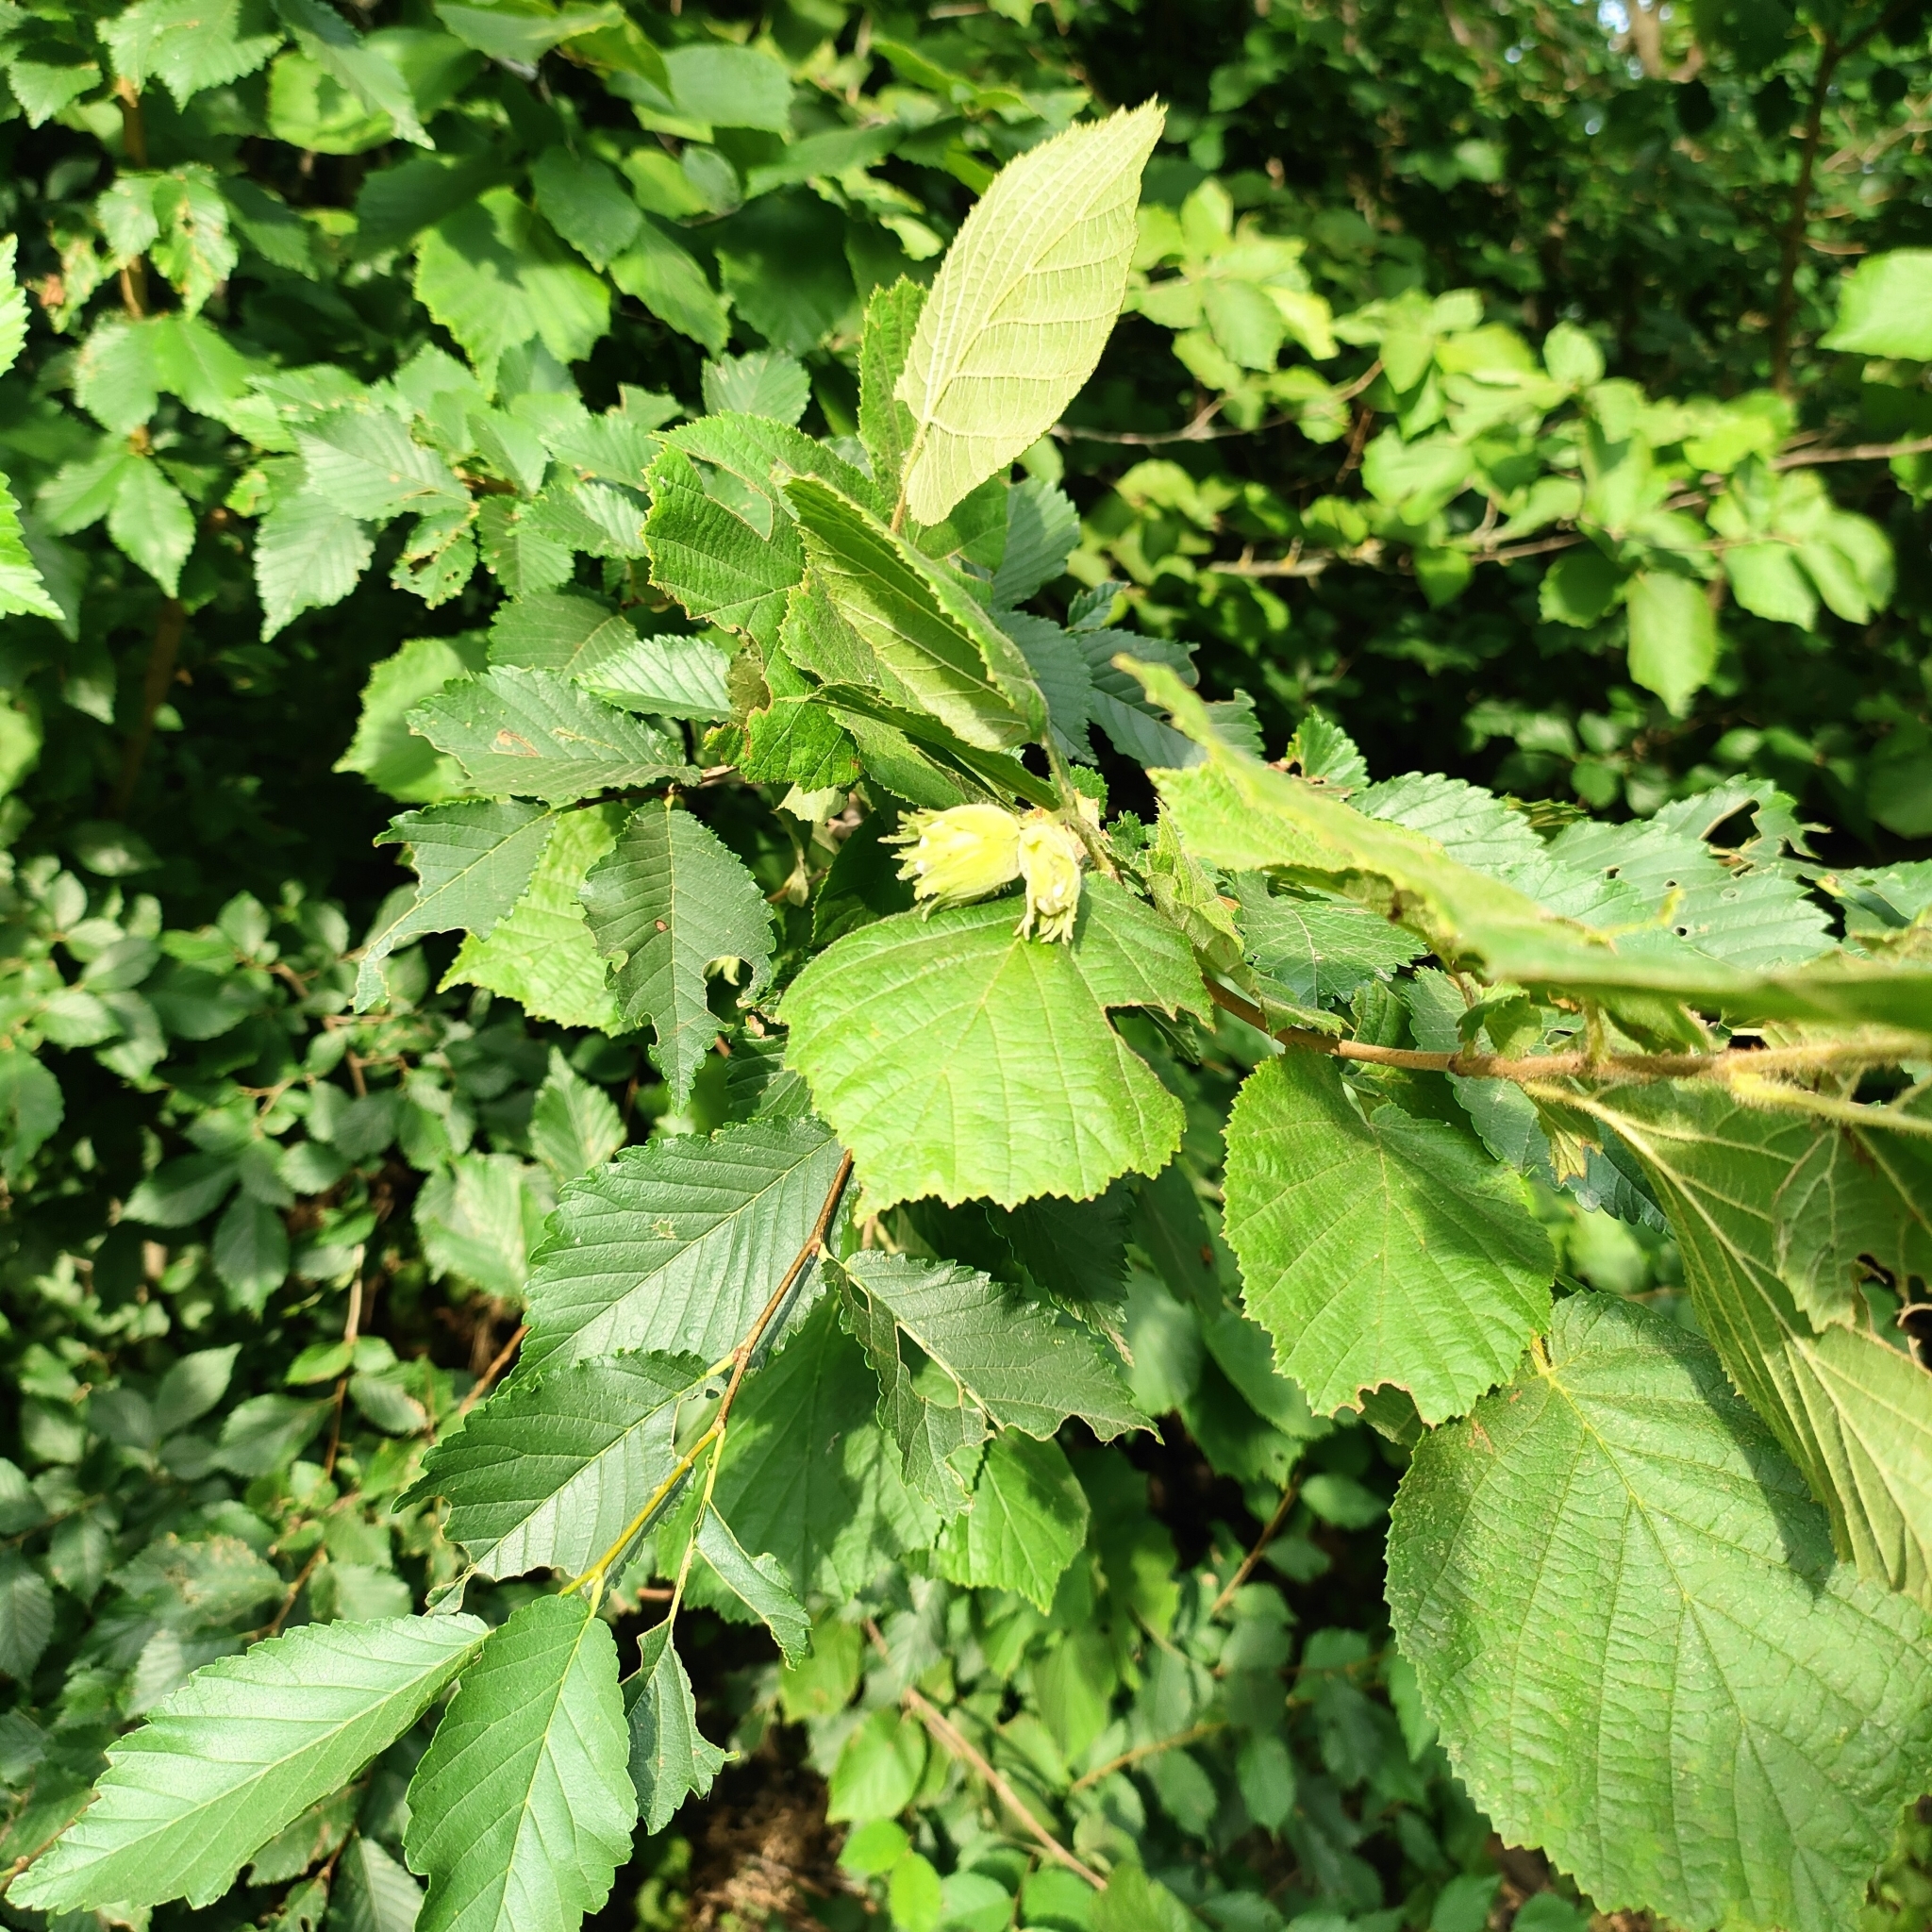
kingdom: Plantae
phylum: Tracheophyta
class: Magnoliopsida
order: Fagales
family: Betulaceae
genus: Corylus
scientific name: Corylus avellana
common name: European hazel
